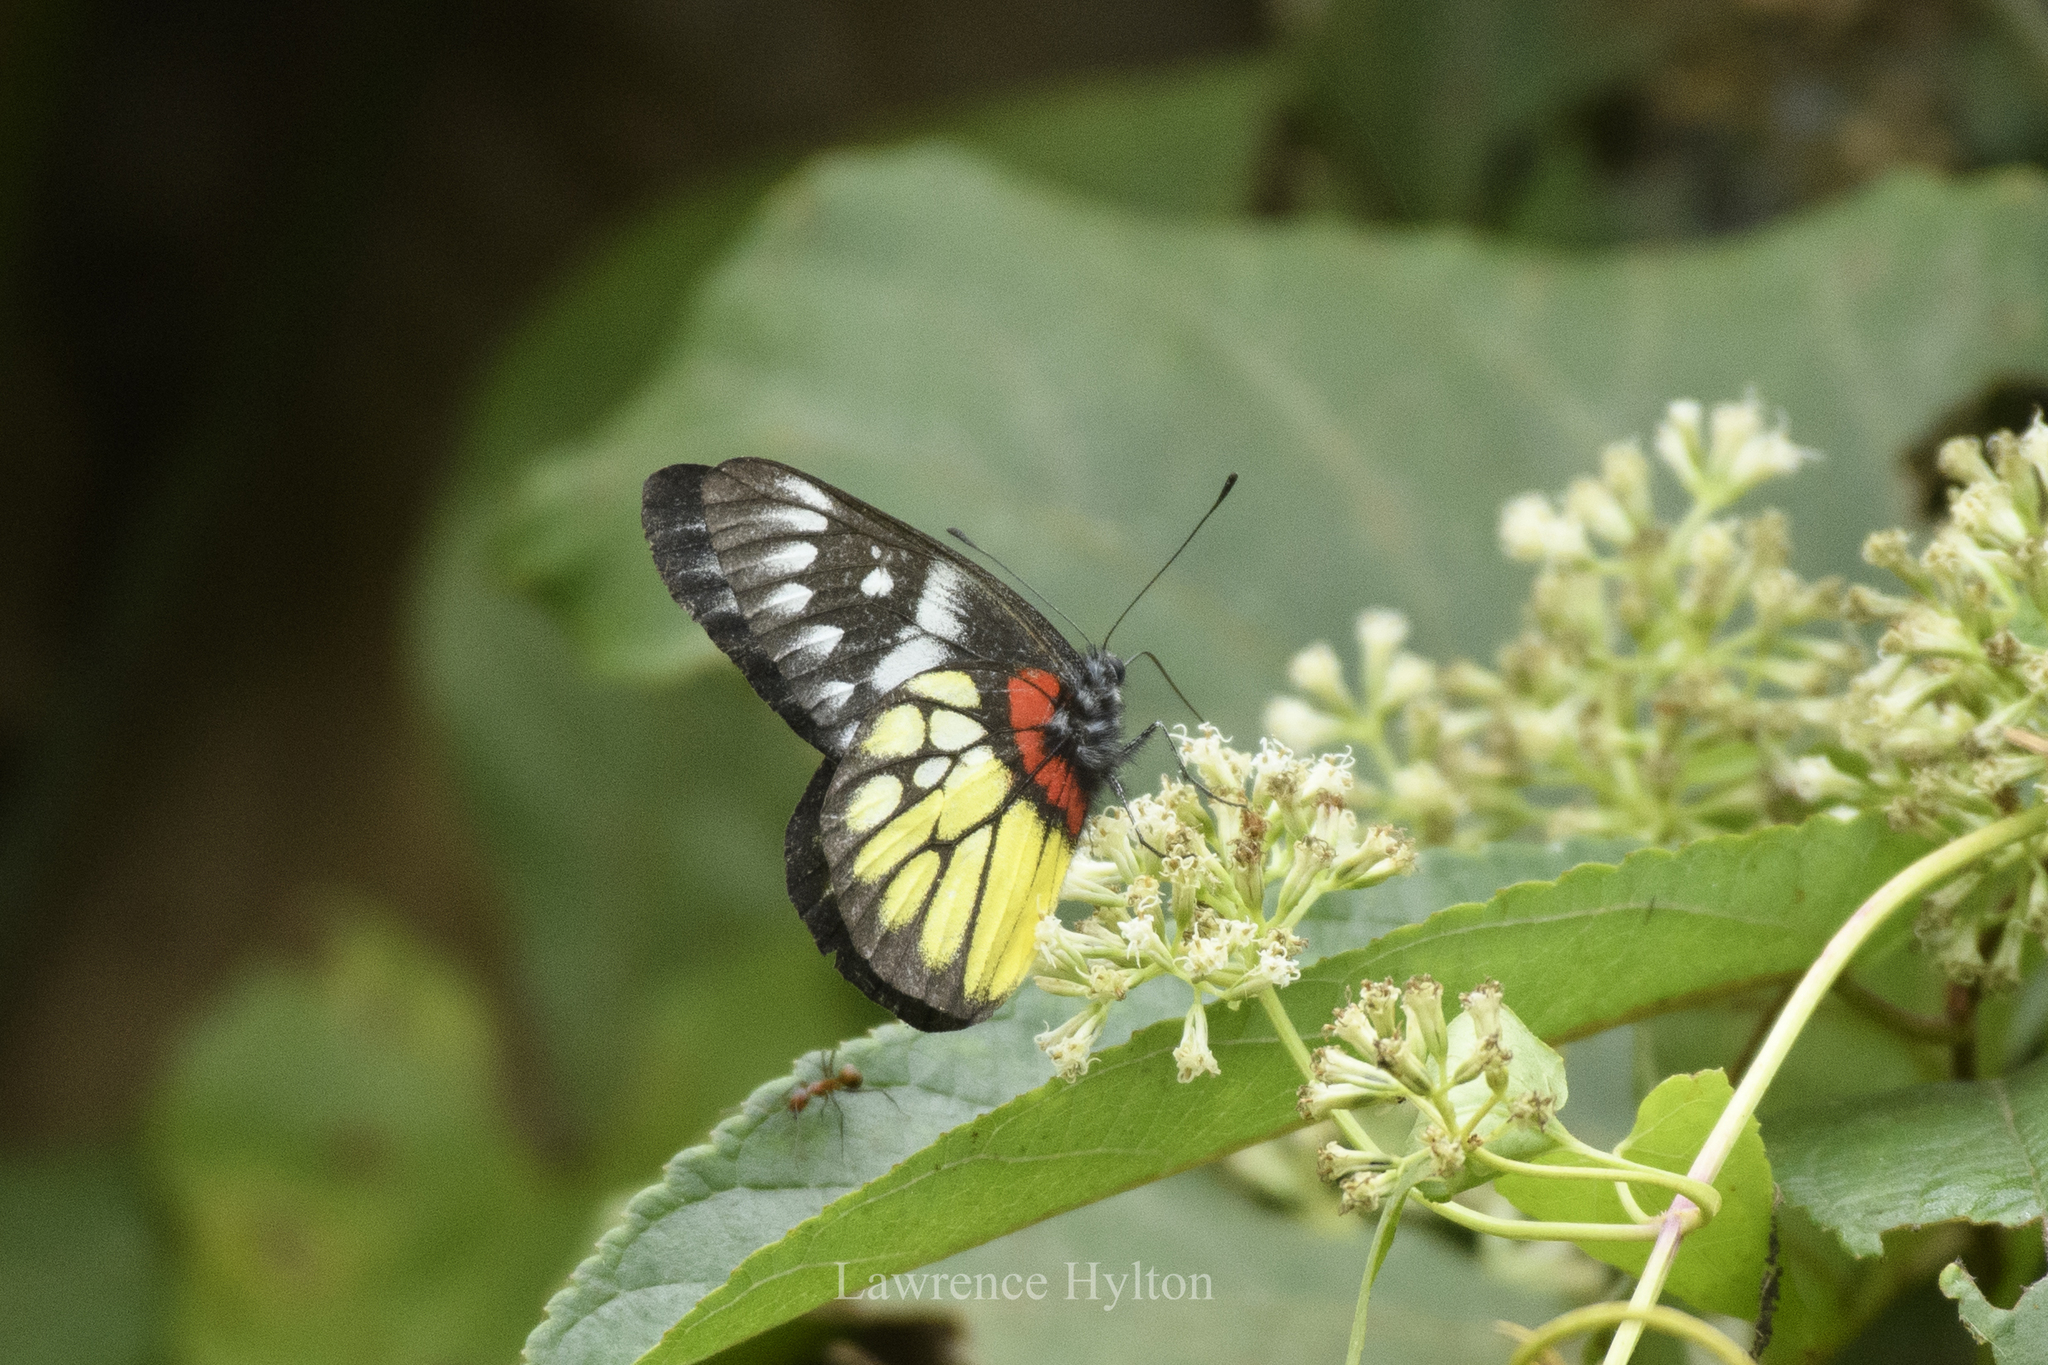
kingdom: Animalia
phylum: Arthropoda
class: Insecta
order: Lepidoptera
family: Pieridae
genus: Delias
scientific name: Delias pasithoe
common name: Red-base jezebel
